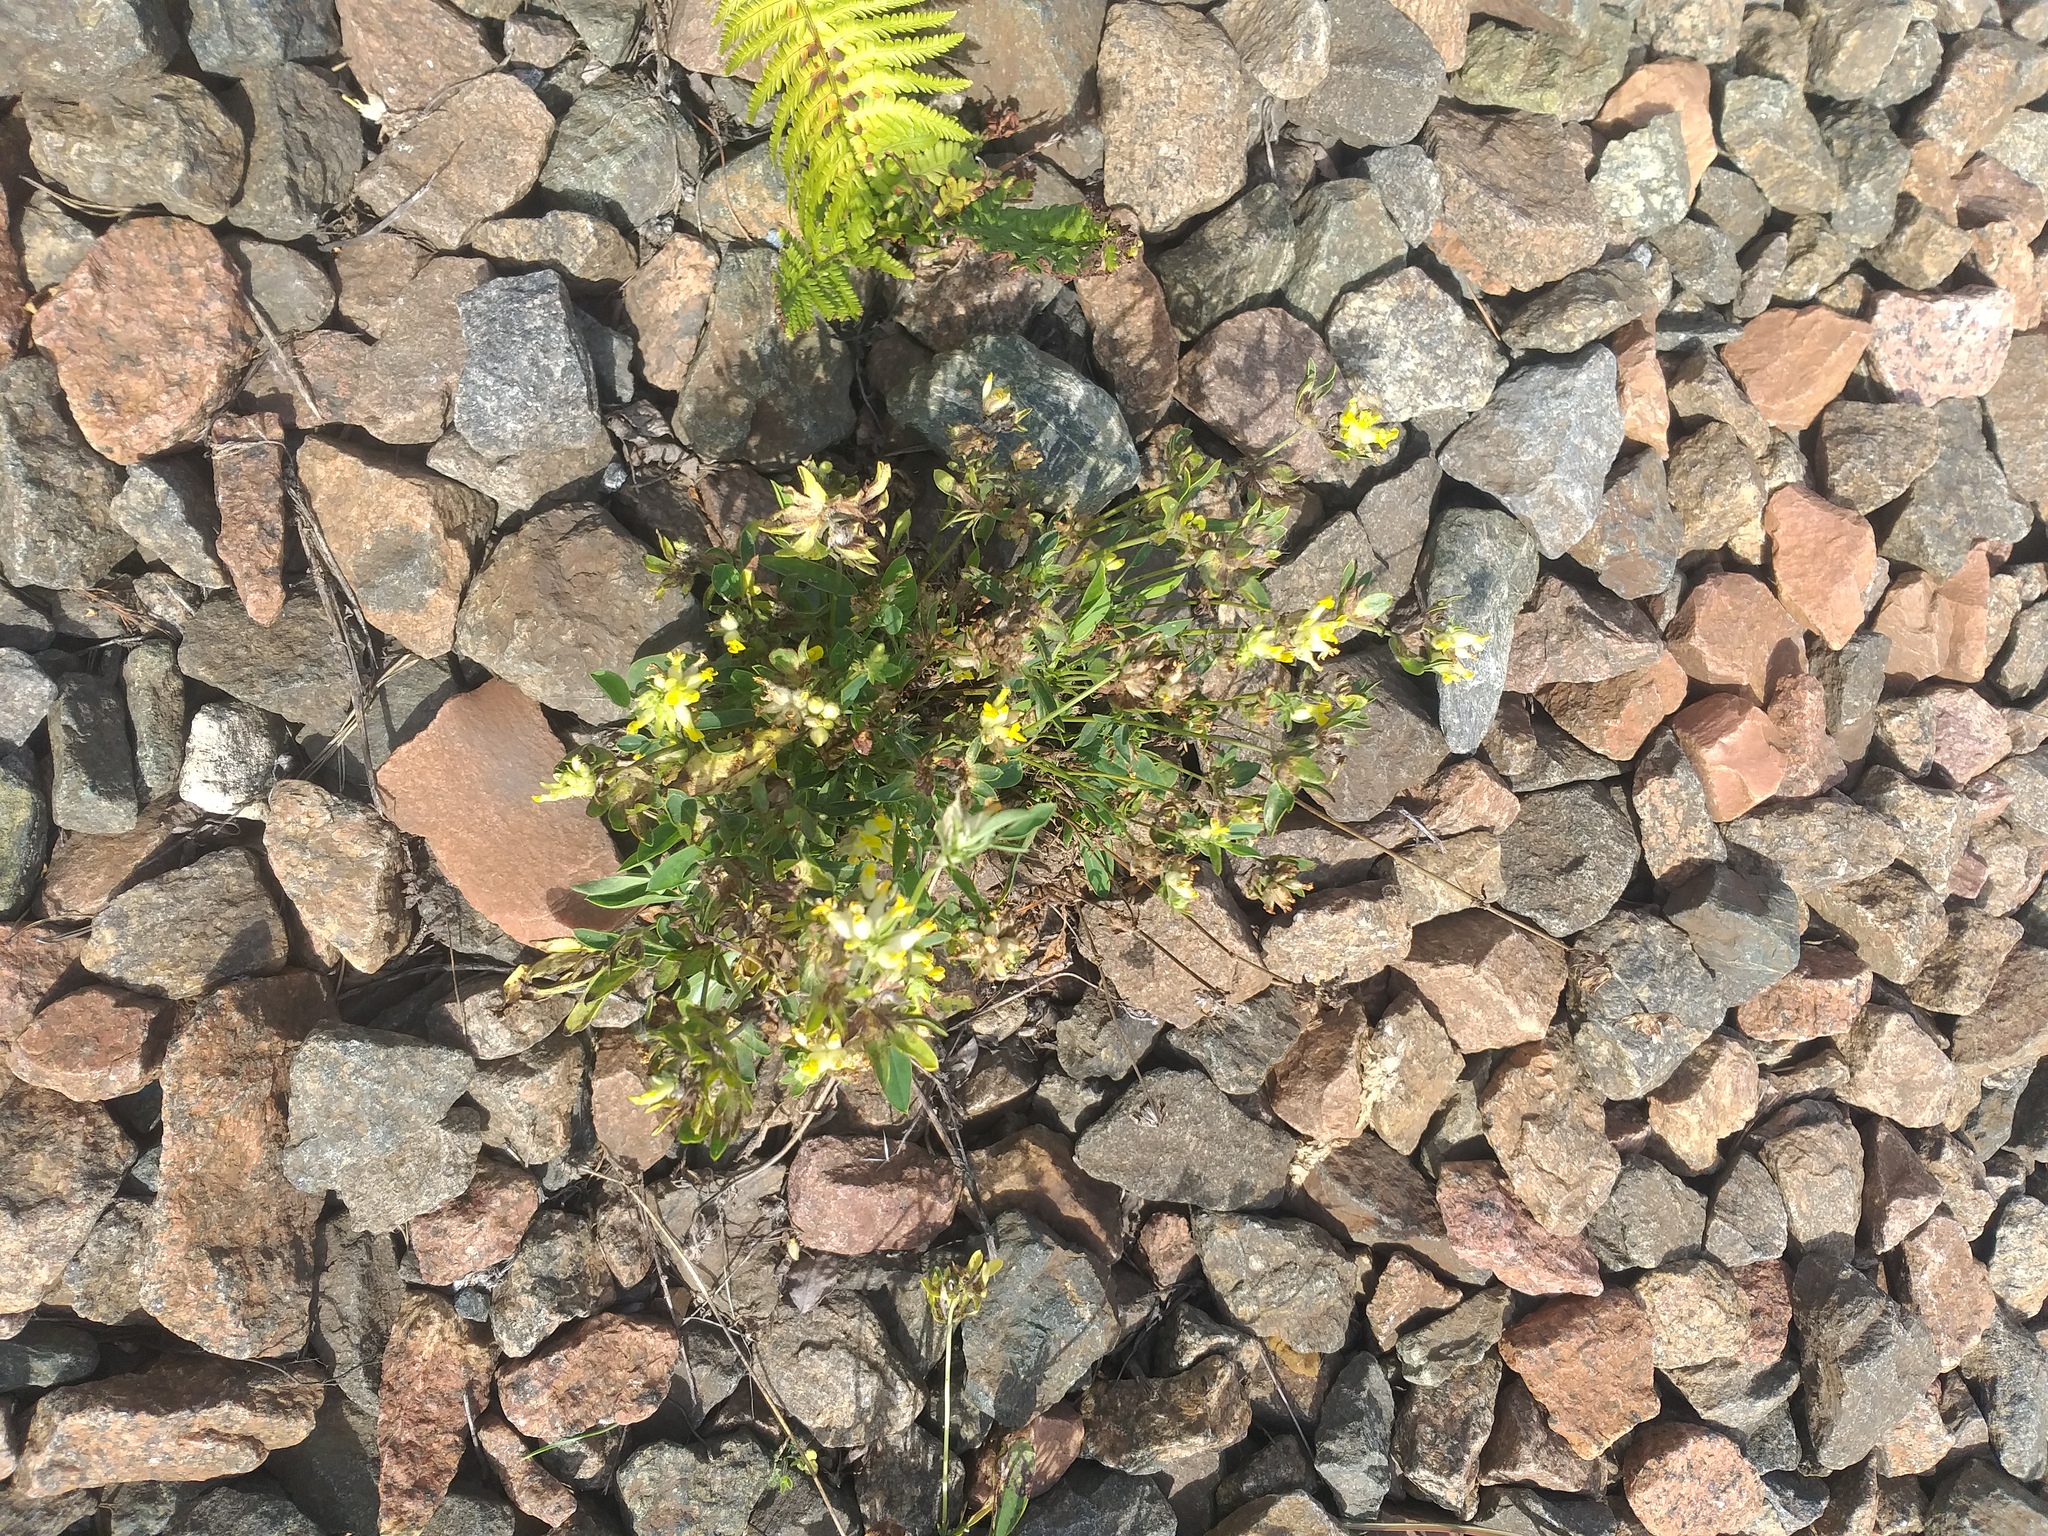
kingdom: Plantae
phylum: Tracheophyta
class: Magnoliopsida
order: Fabales
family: Fabaceae
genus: Anthyllis
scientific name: Anthyllis vulneraria
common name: Kidney vetch
